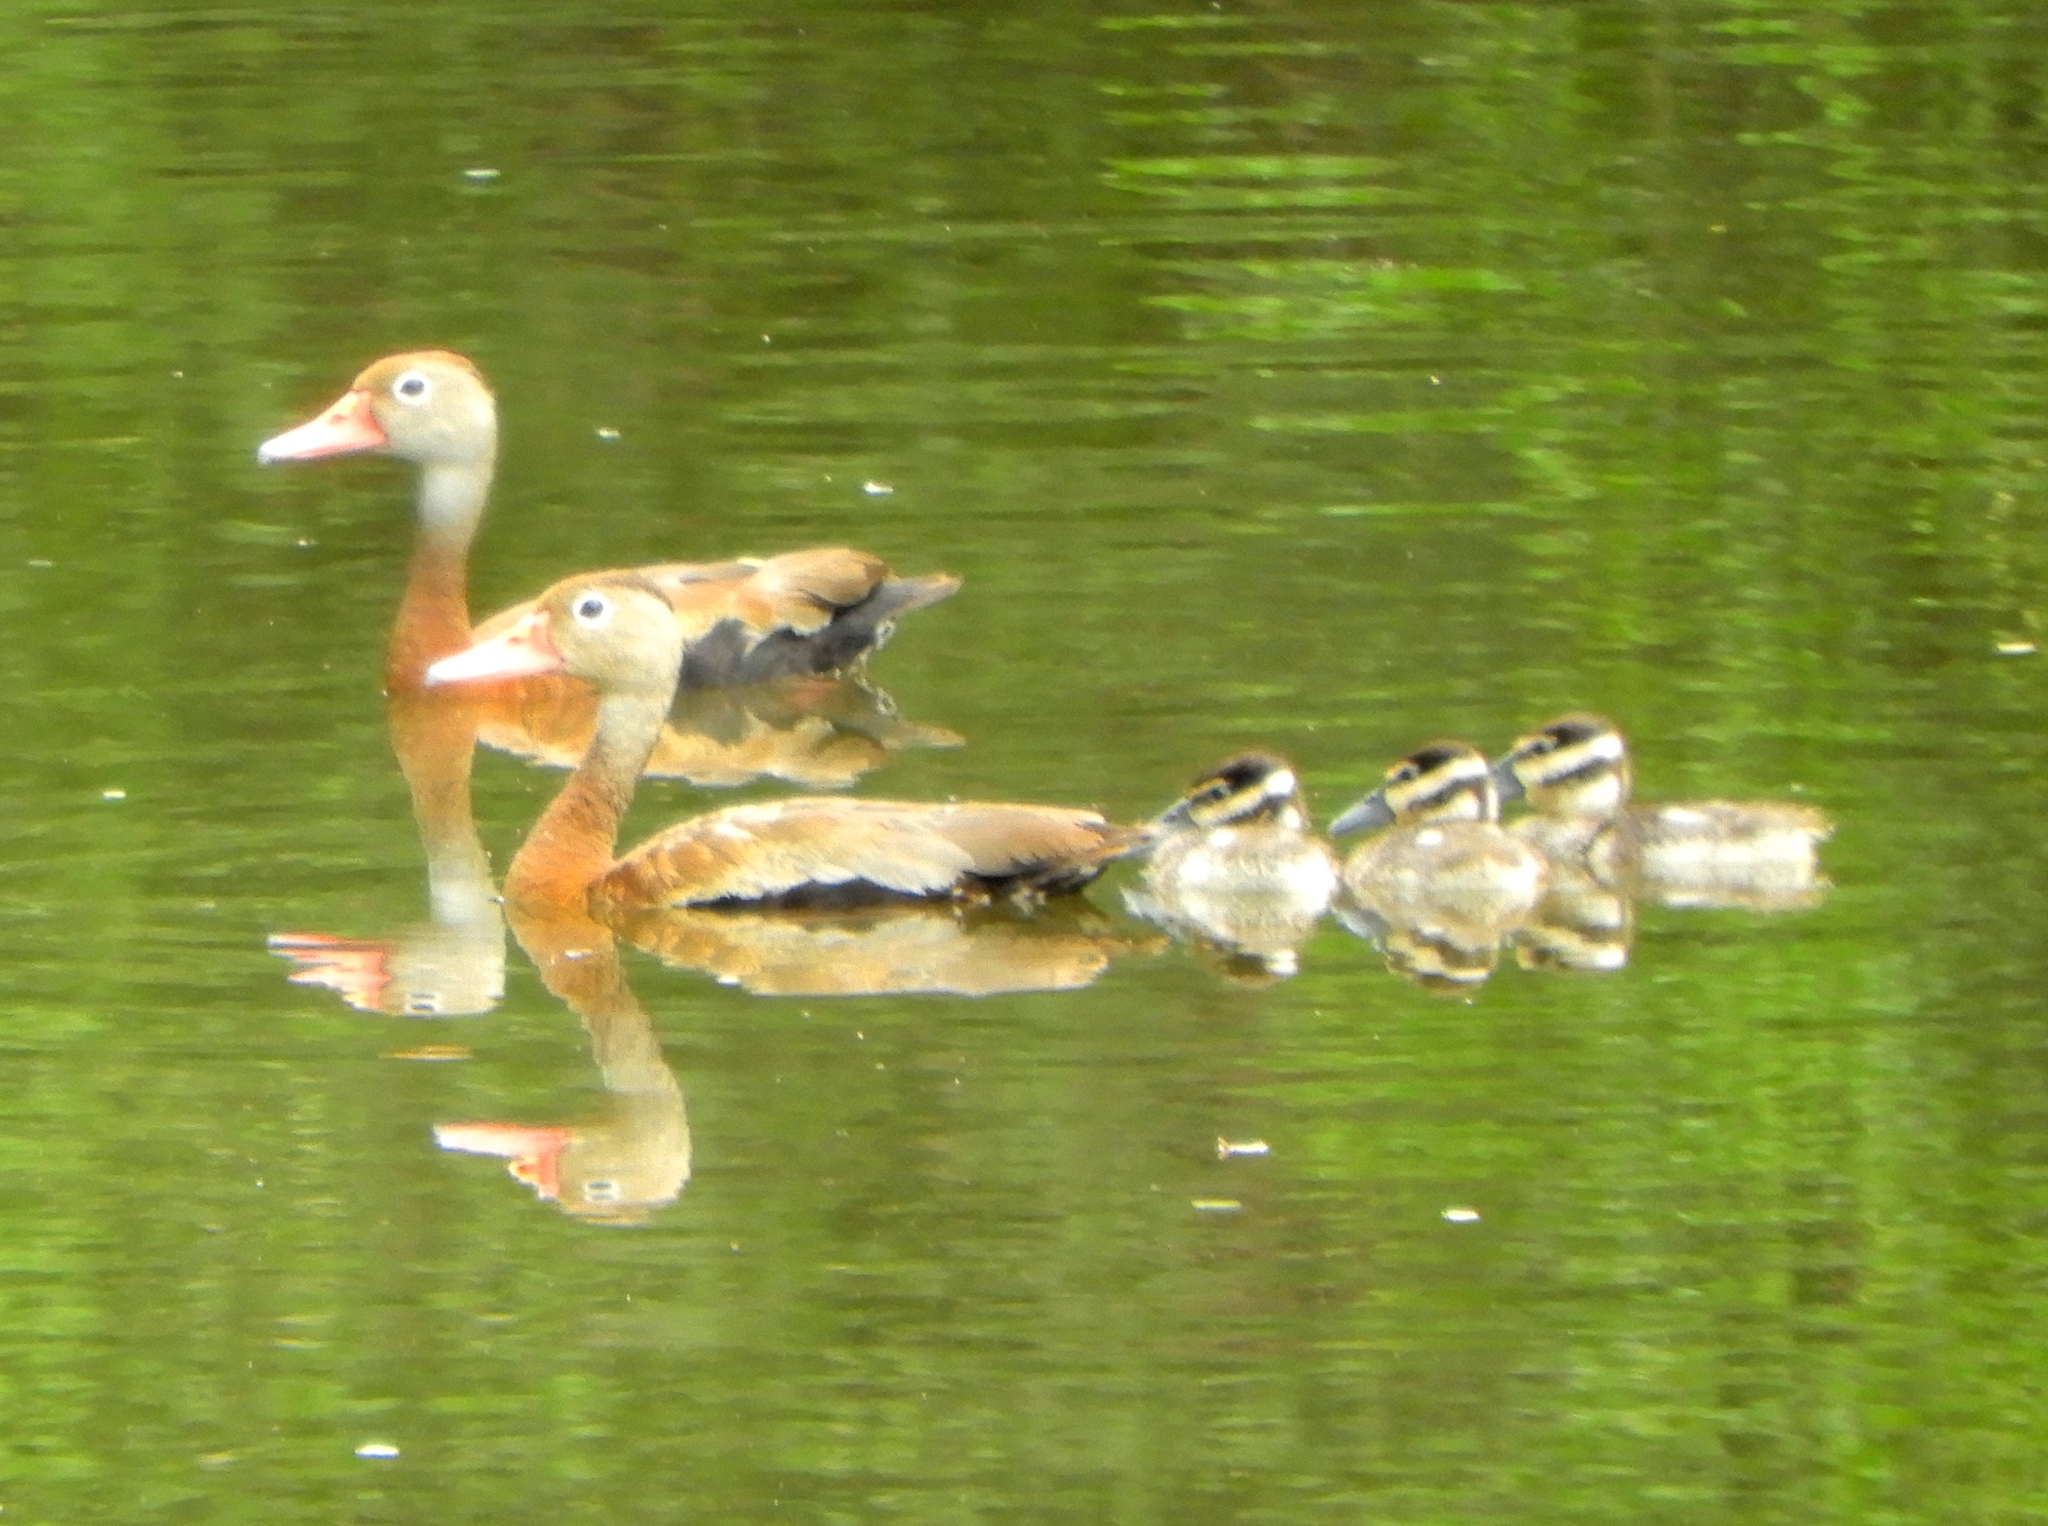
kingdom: Animalia
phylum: Chordata
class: Aves
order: Anseriformes
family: Anatidae
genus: Dendrocygna
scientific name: Dendrocygna autumnalis
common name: Black-bellied whistling duck
